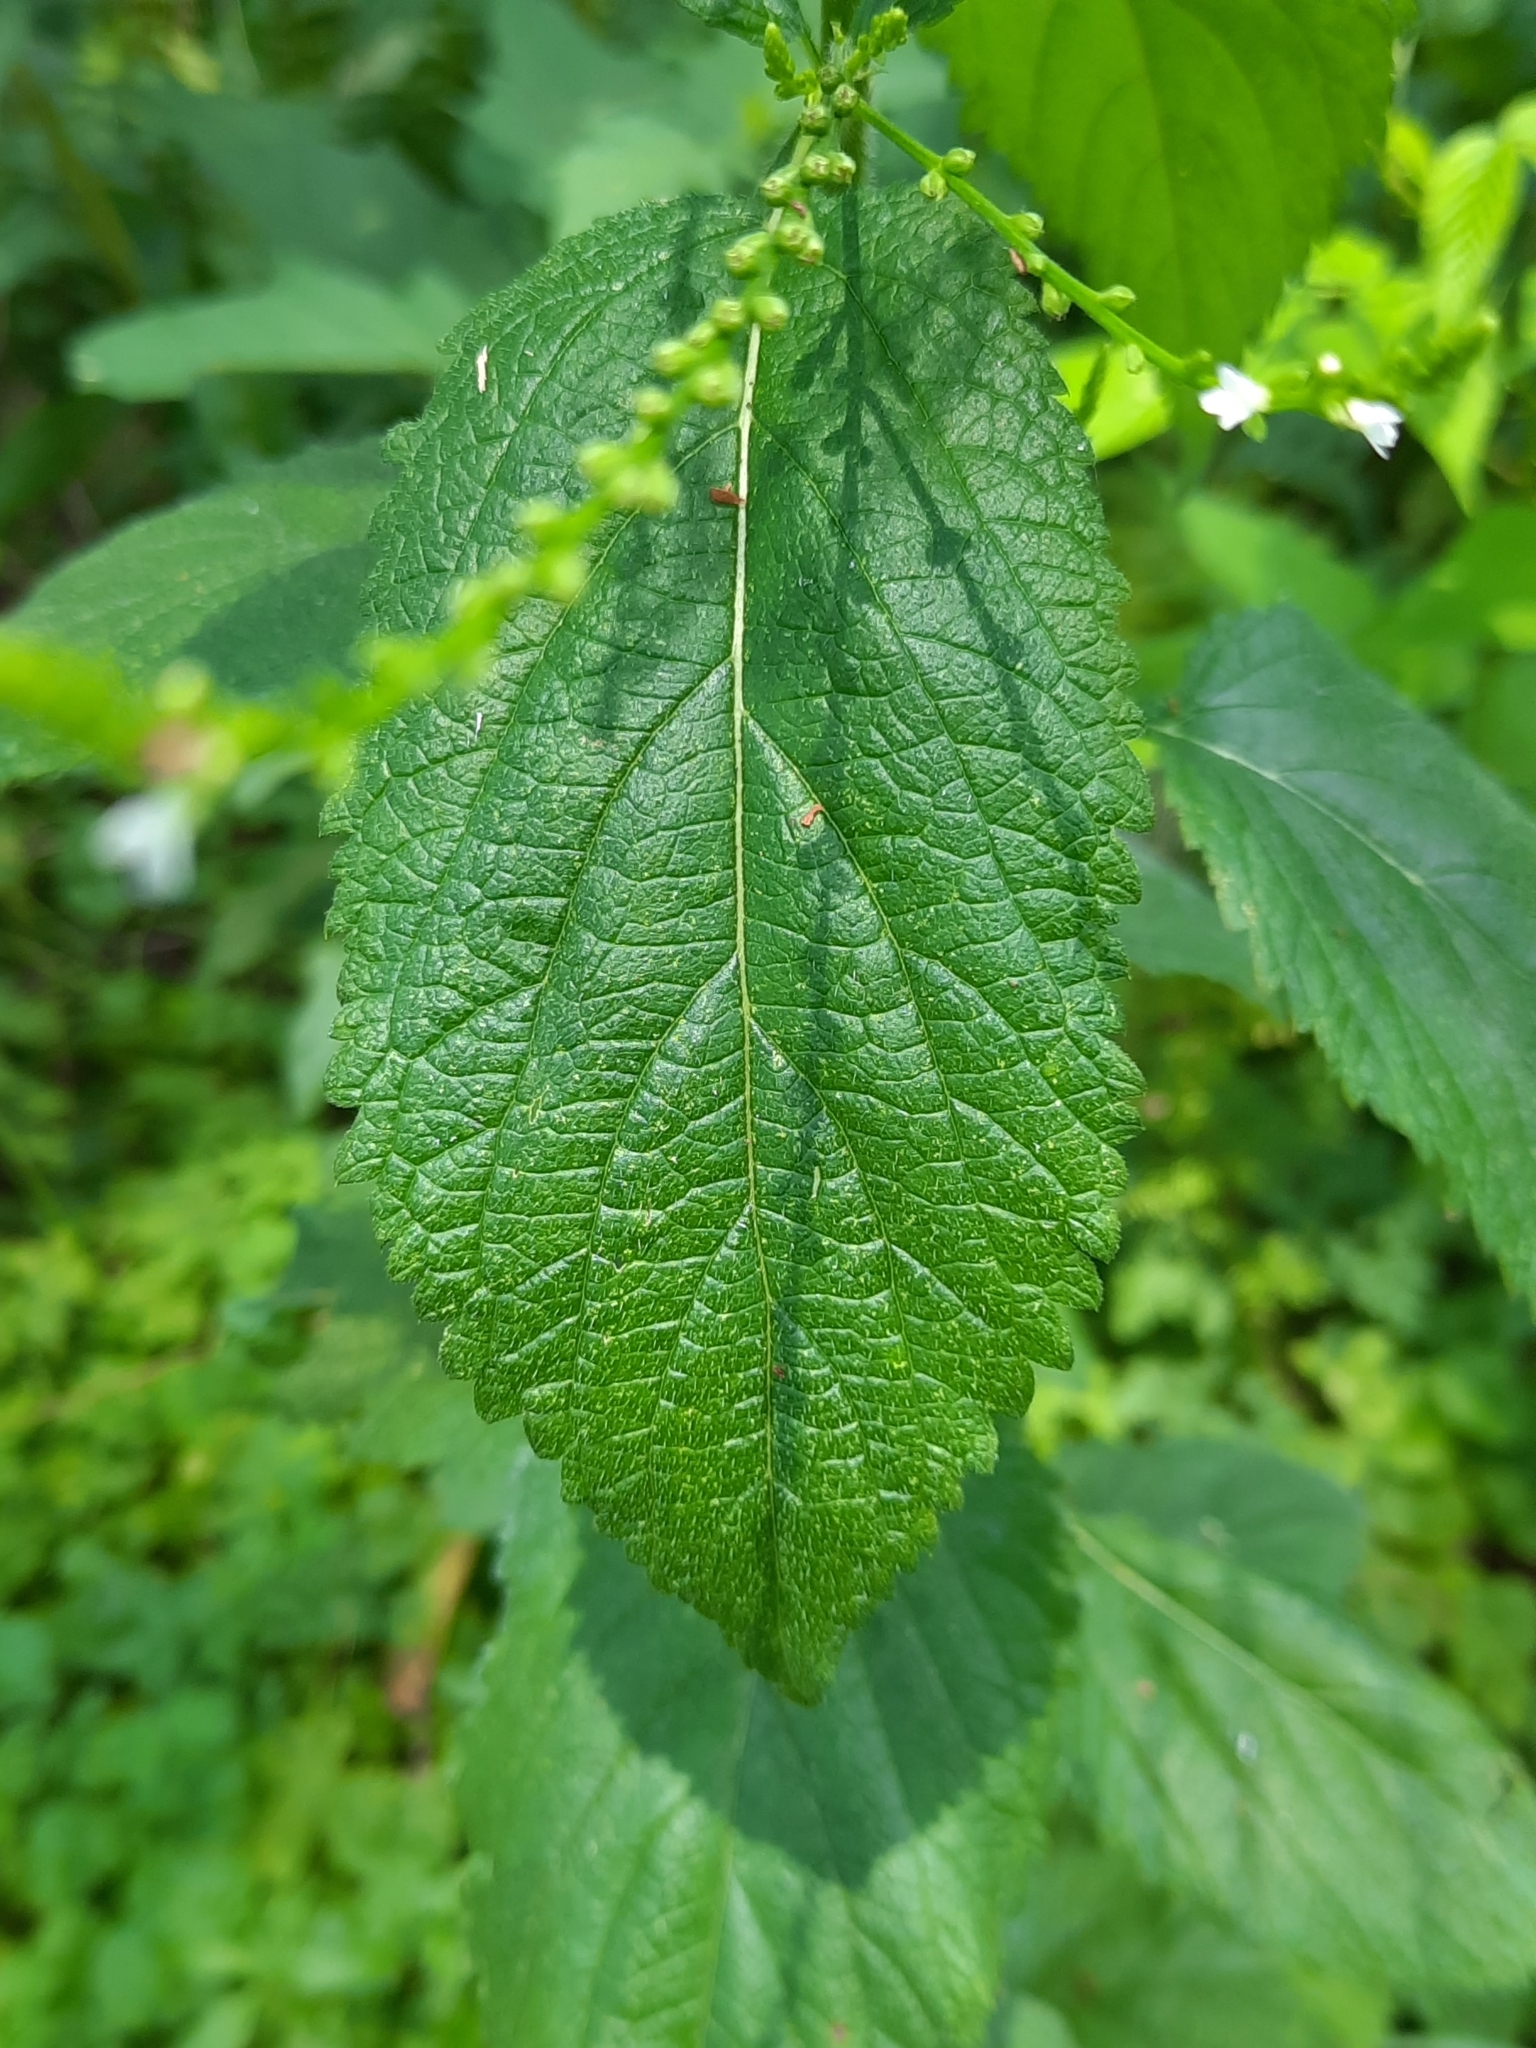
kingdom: Plantae
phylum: Tracheophyta
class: Magnoliopsida
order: Lamiales
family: Verbenaceae
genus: Verbena
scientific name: Verbena urticifolia
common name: Nettle-leaved vervain
